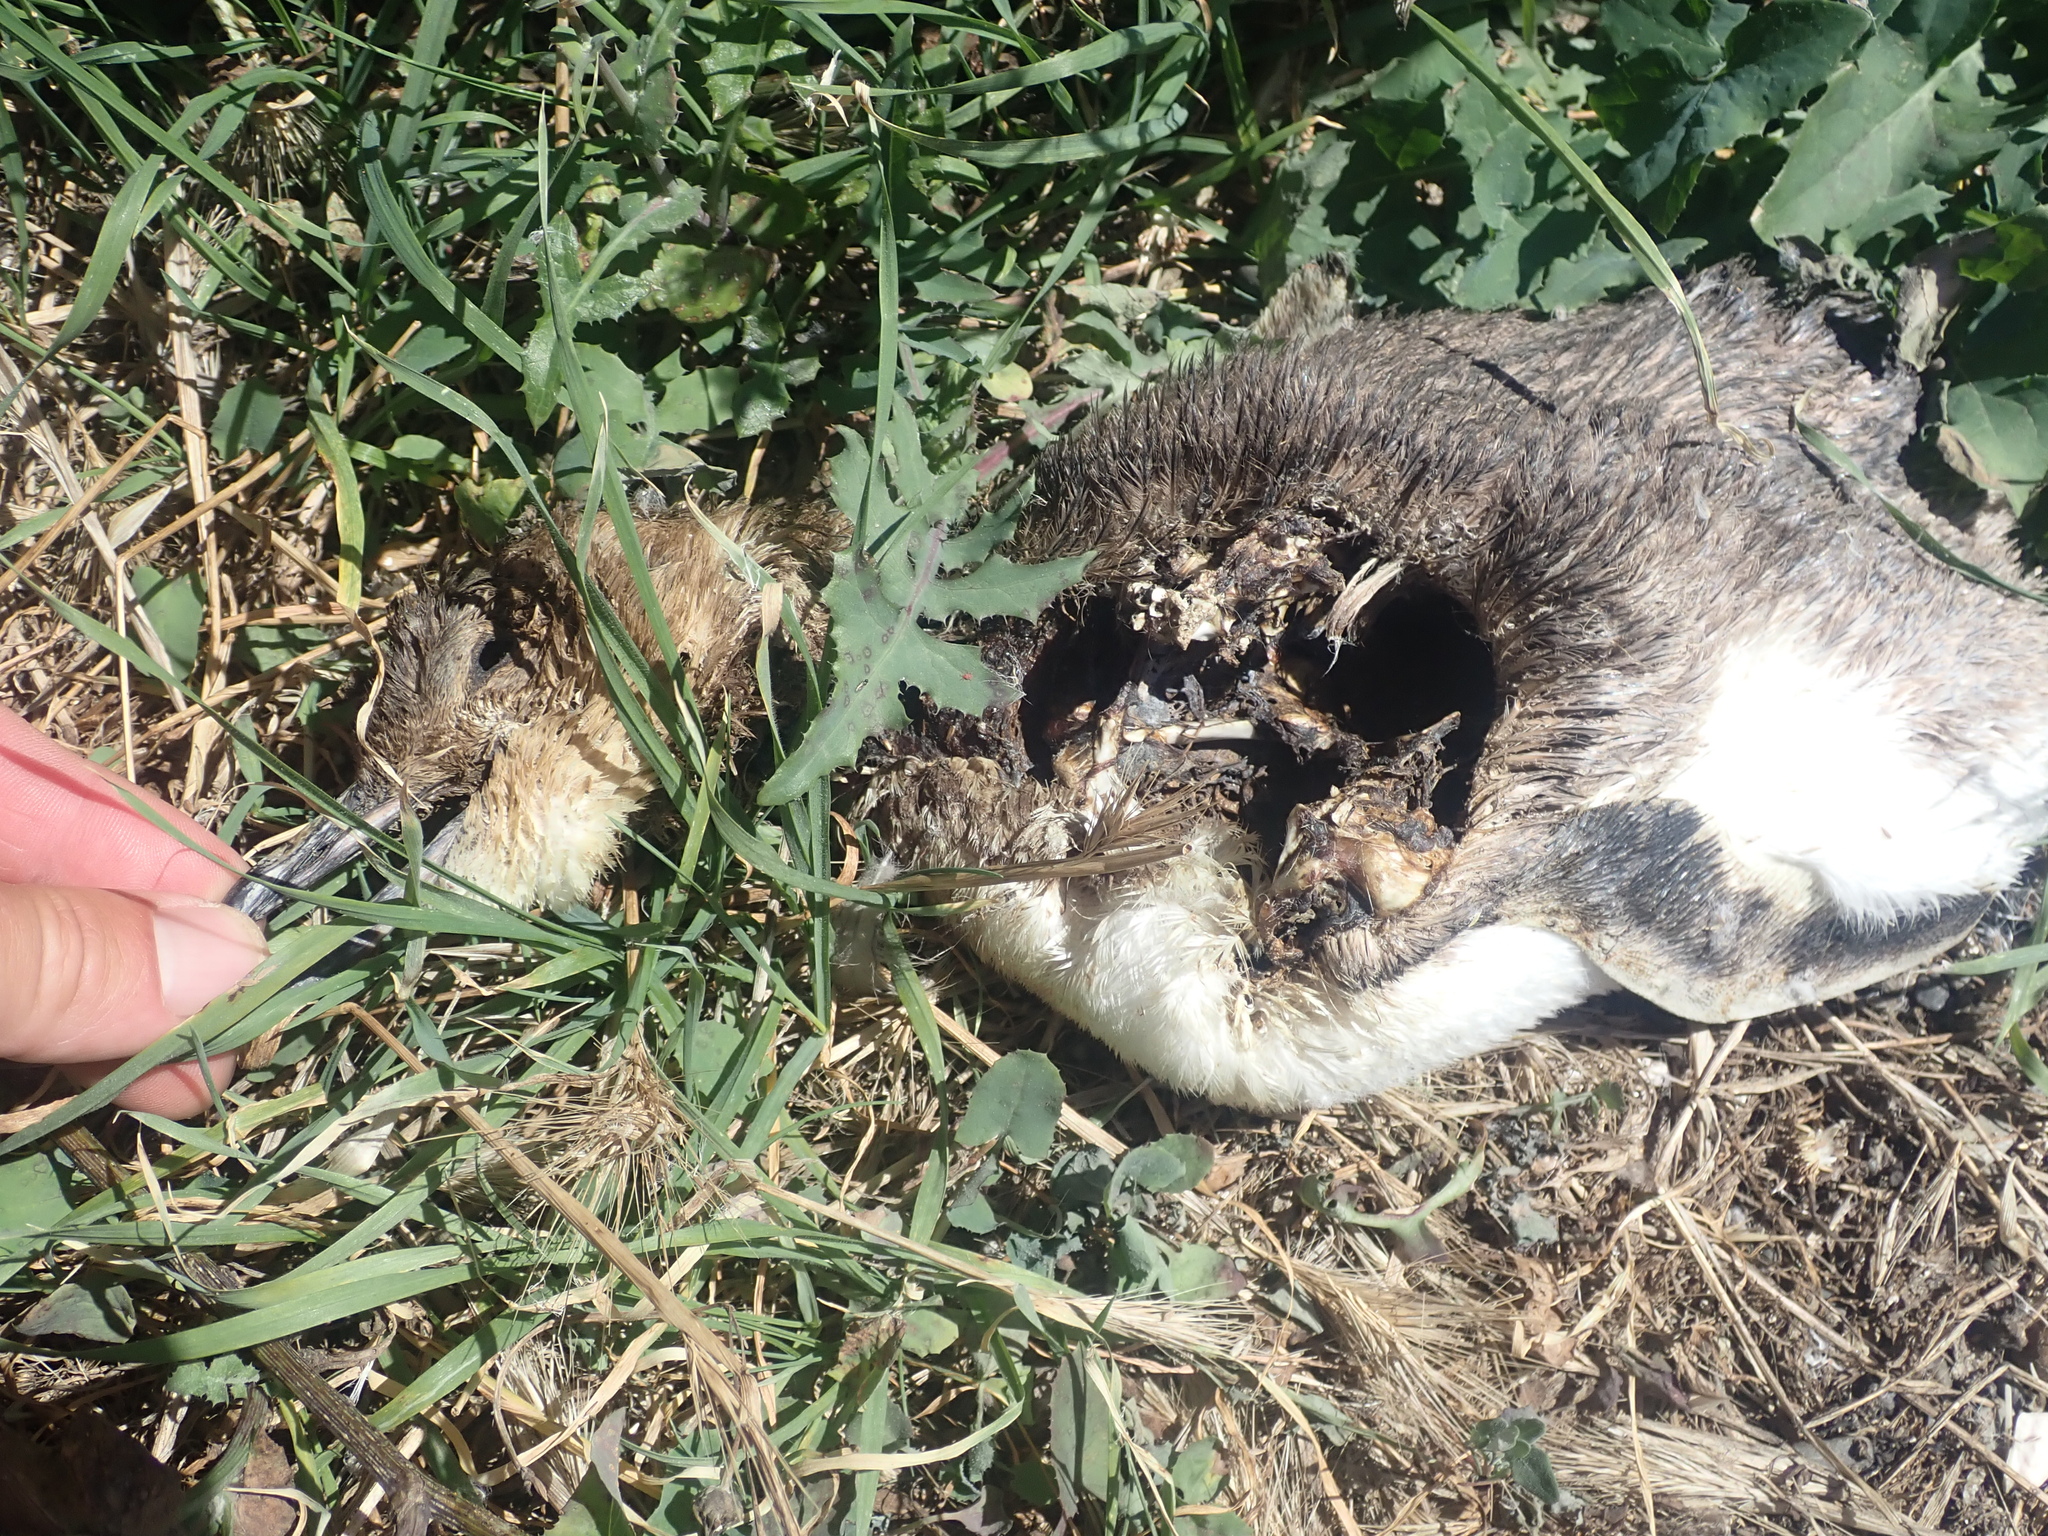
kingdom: Animalia
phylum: Chordata
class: Aves
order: Sphenisciformes
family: Spheniscidae
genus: Eudyptula
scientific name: Eudyptula minor
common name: Little penguin
